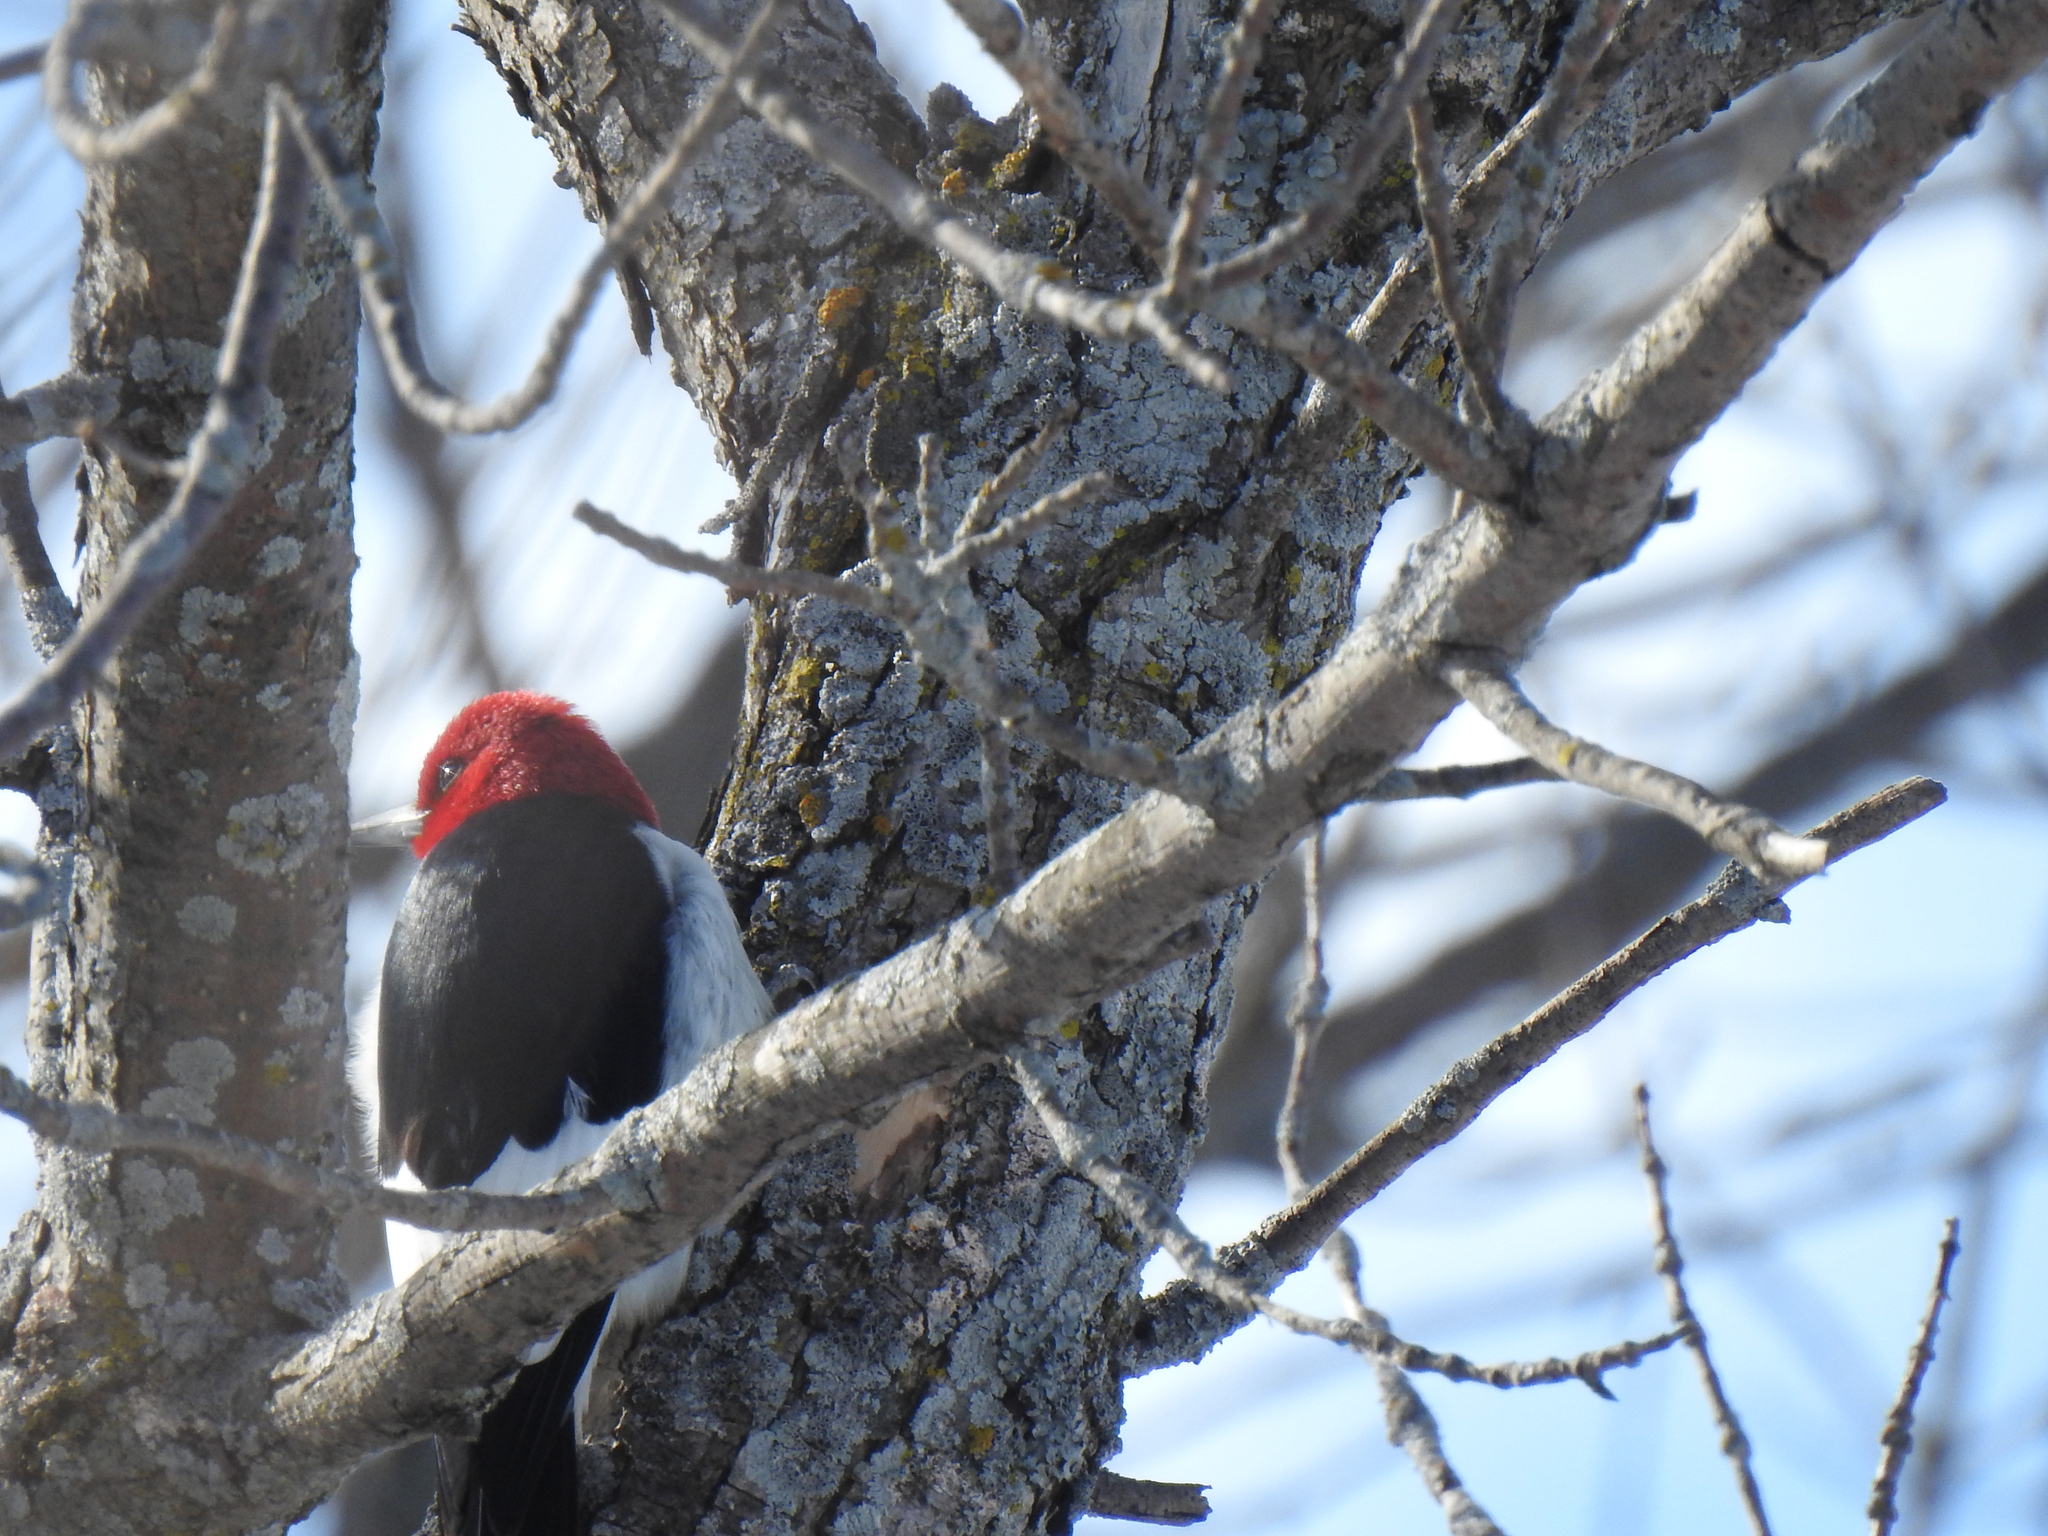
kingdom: Animalia
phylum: Chordata
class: Aves
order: Piciformes
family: Picidae
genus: Melanerpes
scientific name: Melanerpes erythrocephalus
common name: Red-headed woodpecker
